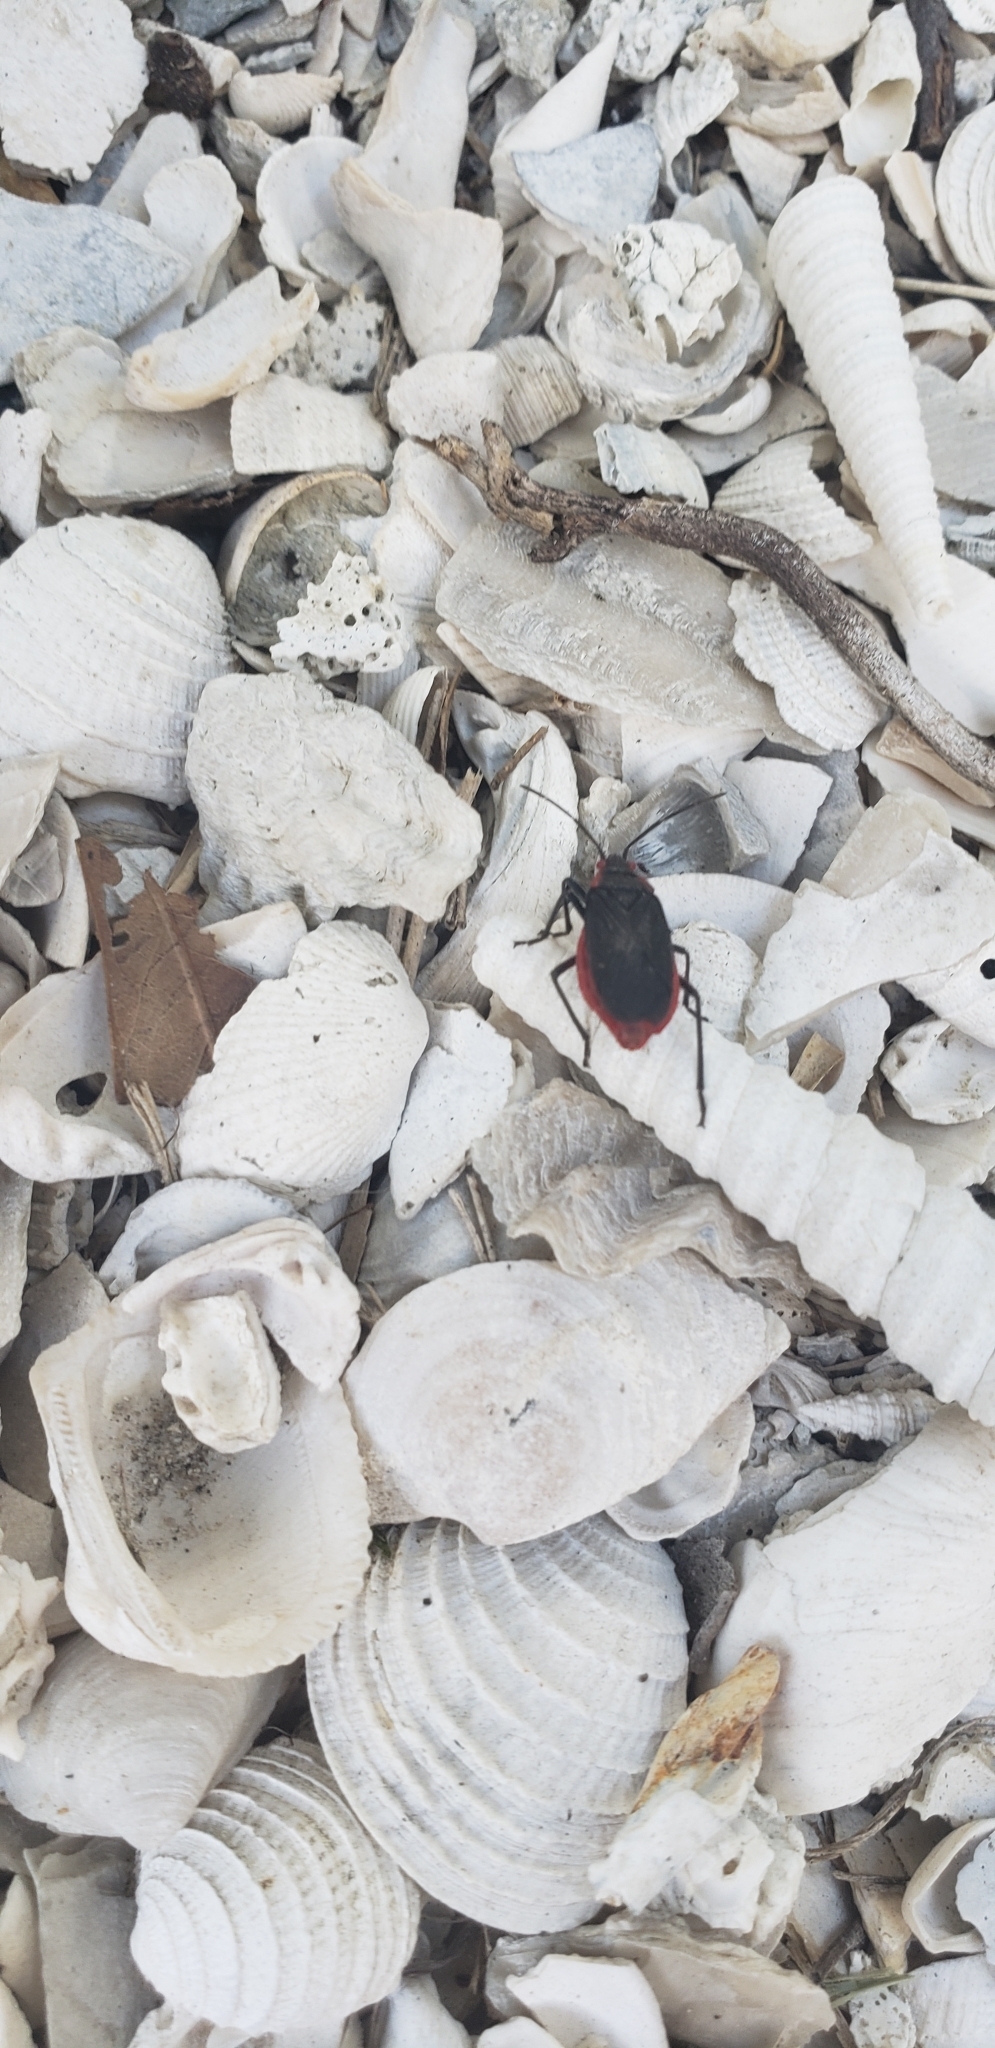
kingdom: Animalia
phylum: Arthropoda
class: Insecta
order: Hemiptera
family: Rhopalidae
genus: Jadera
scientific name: Jadera haematoloma
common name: Red-shouldered bug
